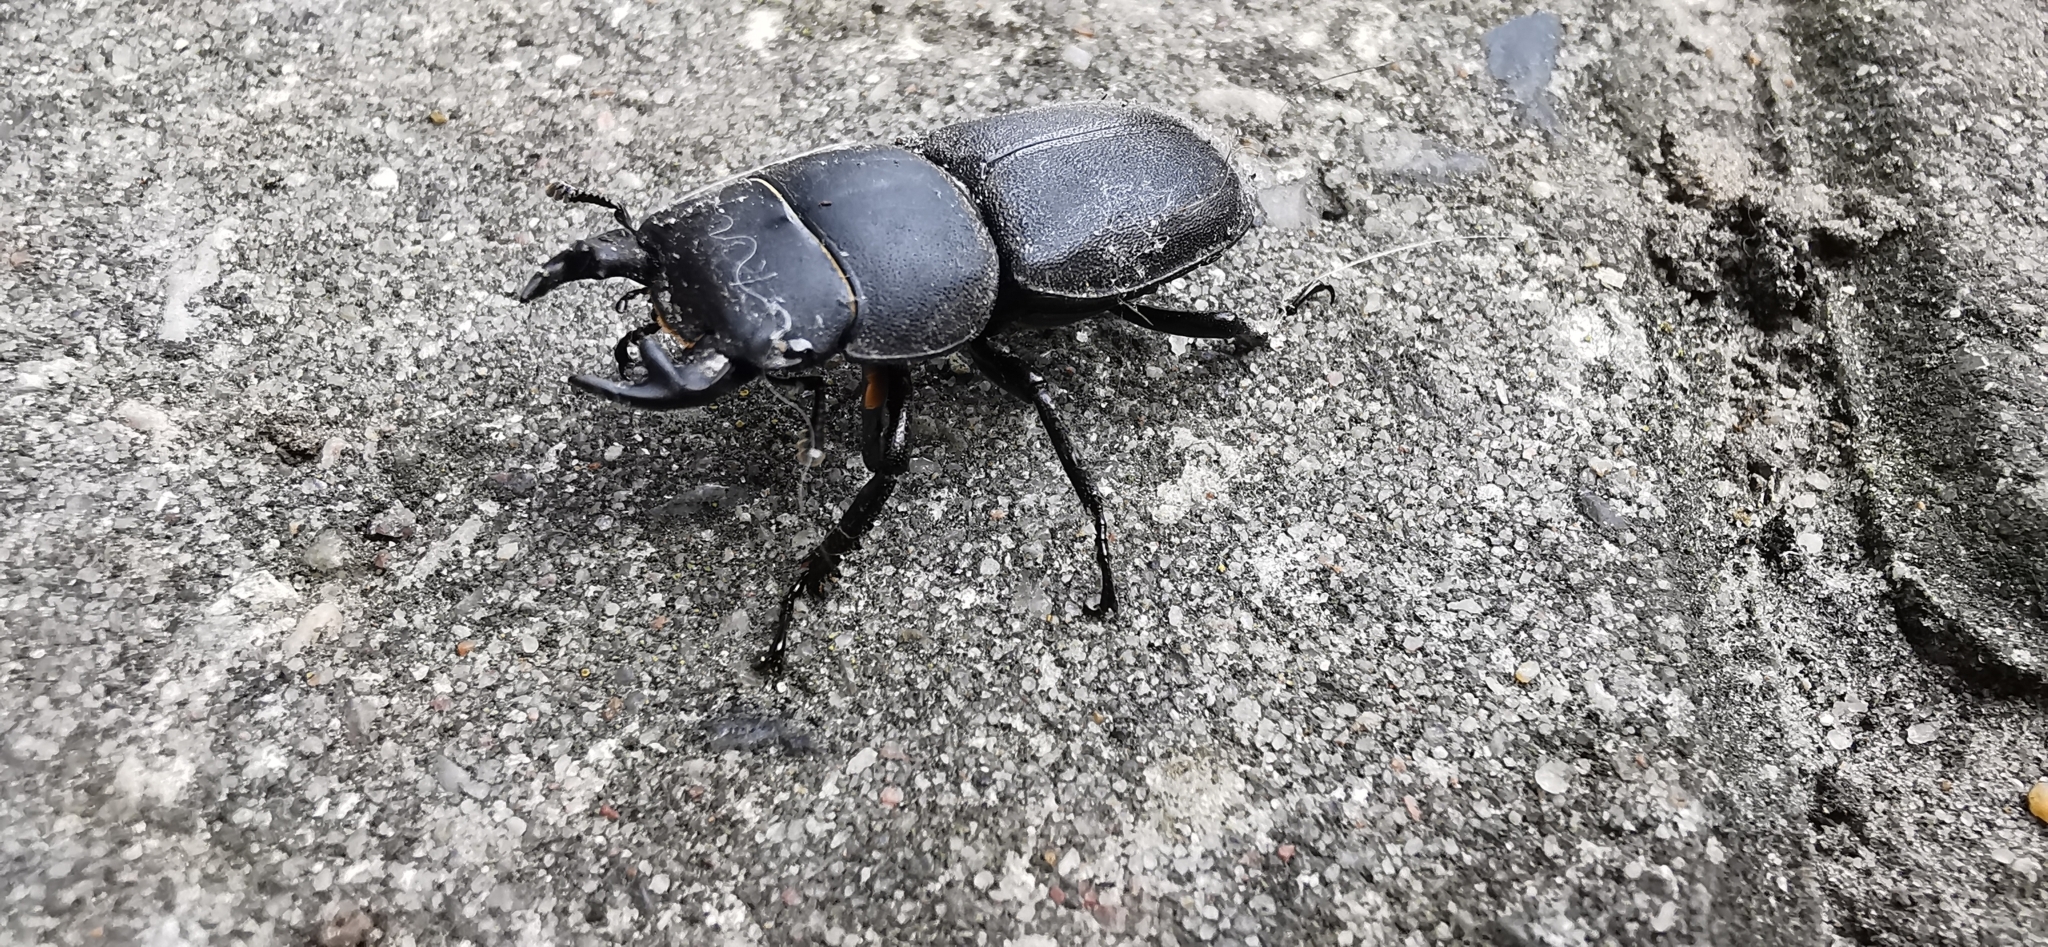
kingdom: Animalia
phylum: Arthropoda
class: Insecta
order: Coleoptera
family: Lucanidae
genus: Dorcus
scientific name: Dorcus parallelipipedus
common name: Lesser stag beetle
